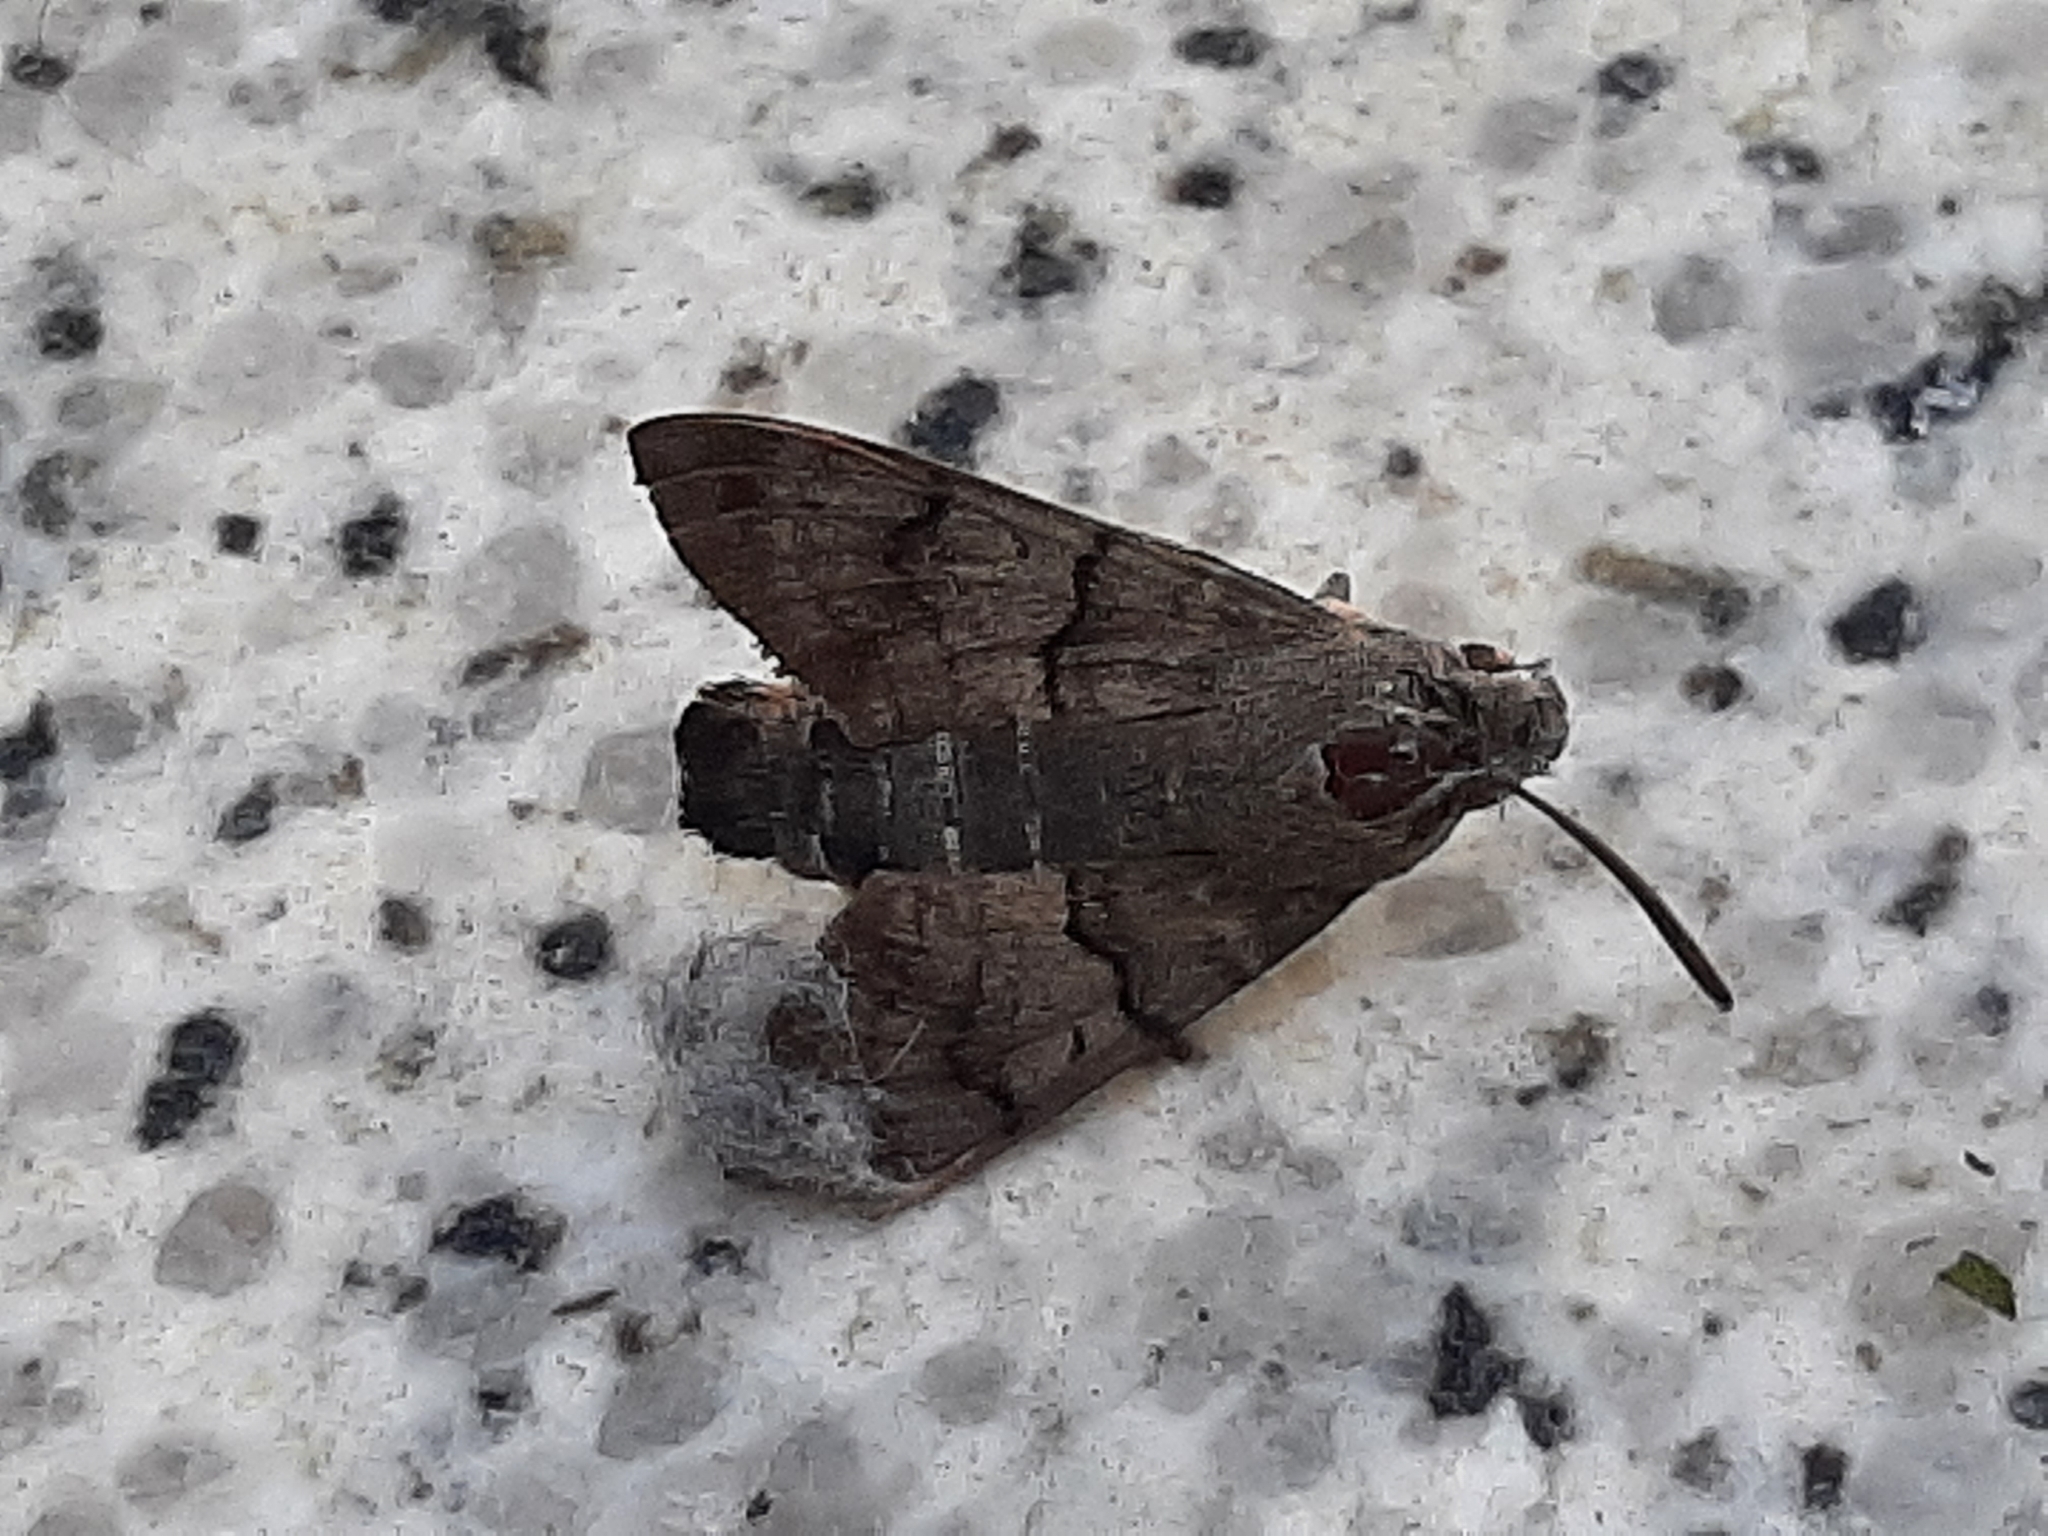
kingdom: Animalia
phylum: Arthropoda
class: Insecta
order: Lepidoptera
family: Sphingidae
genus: Macroglossum
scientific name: Macroglossum stellatarum
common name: Humming-bird hawk-moth
